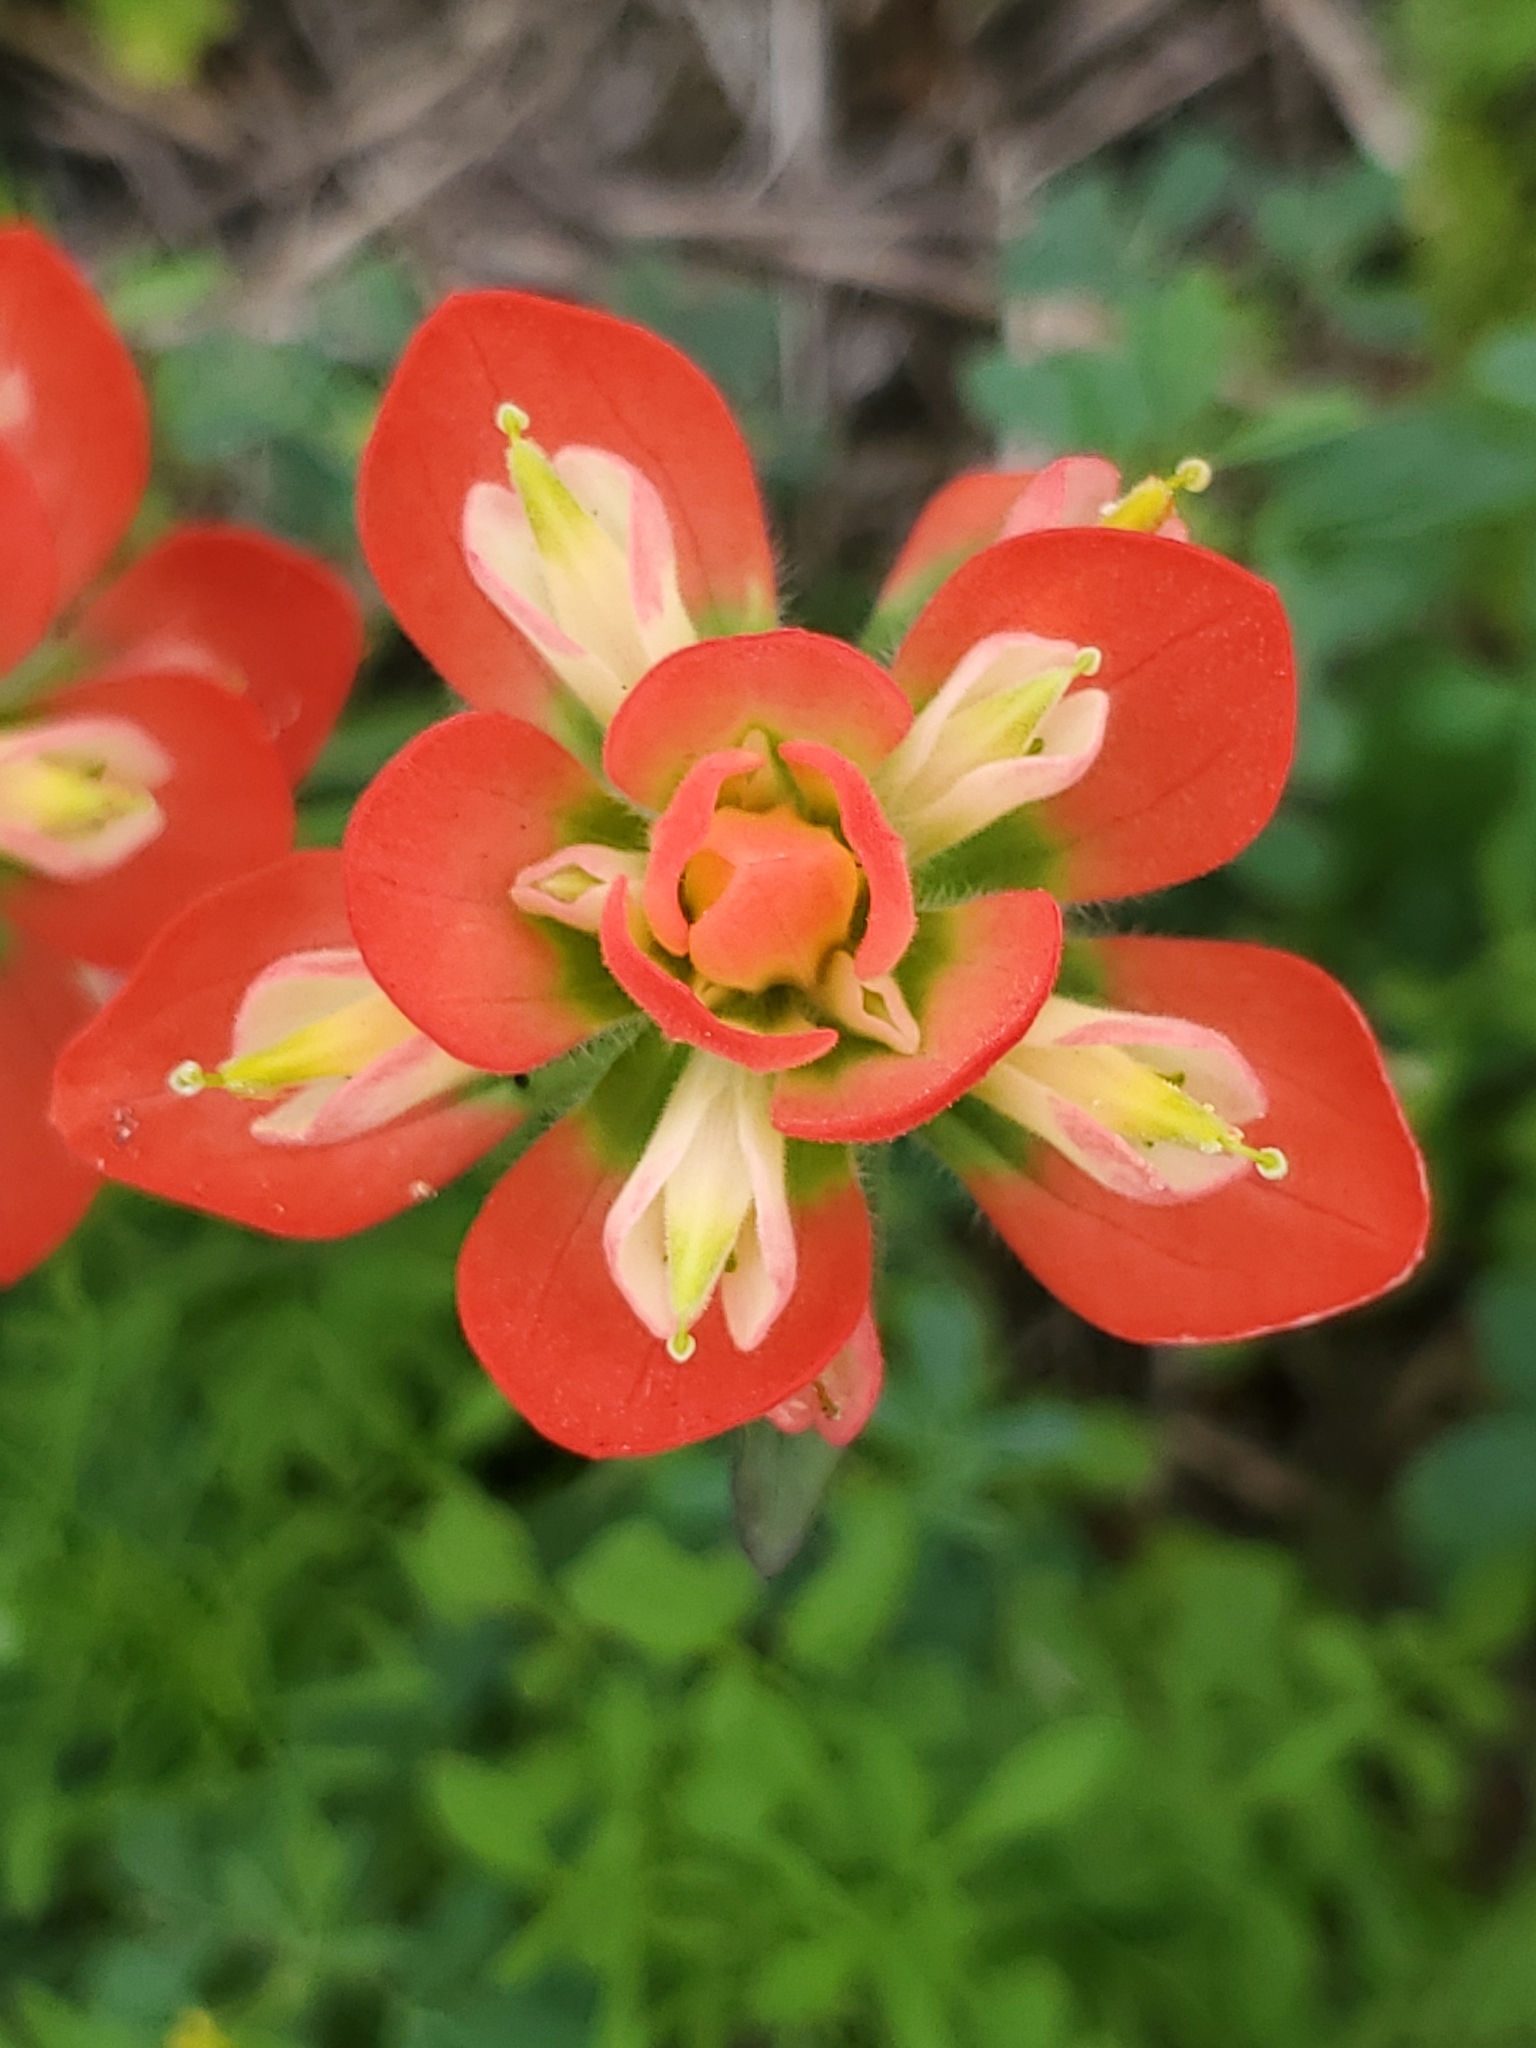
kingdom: Plantae
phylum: Tracheophyta
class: Magnoliopsida
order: Lamiales
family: Orobanchaceae
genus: Castilleja
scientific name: Castilleja indivisa
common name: Texas paintbrush
